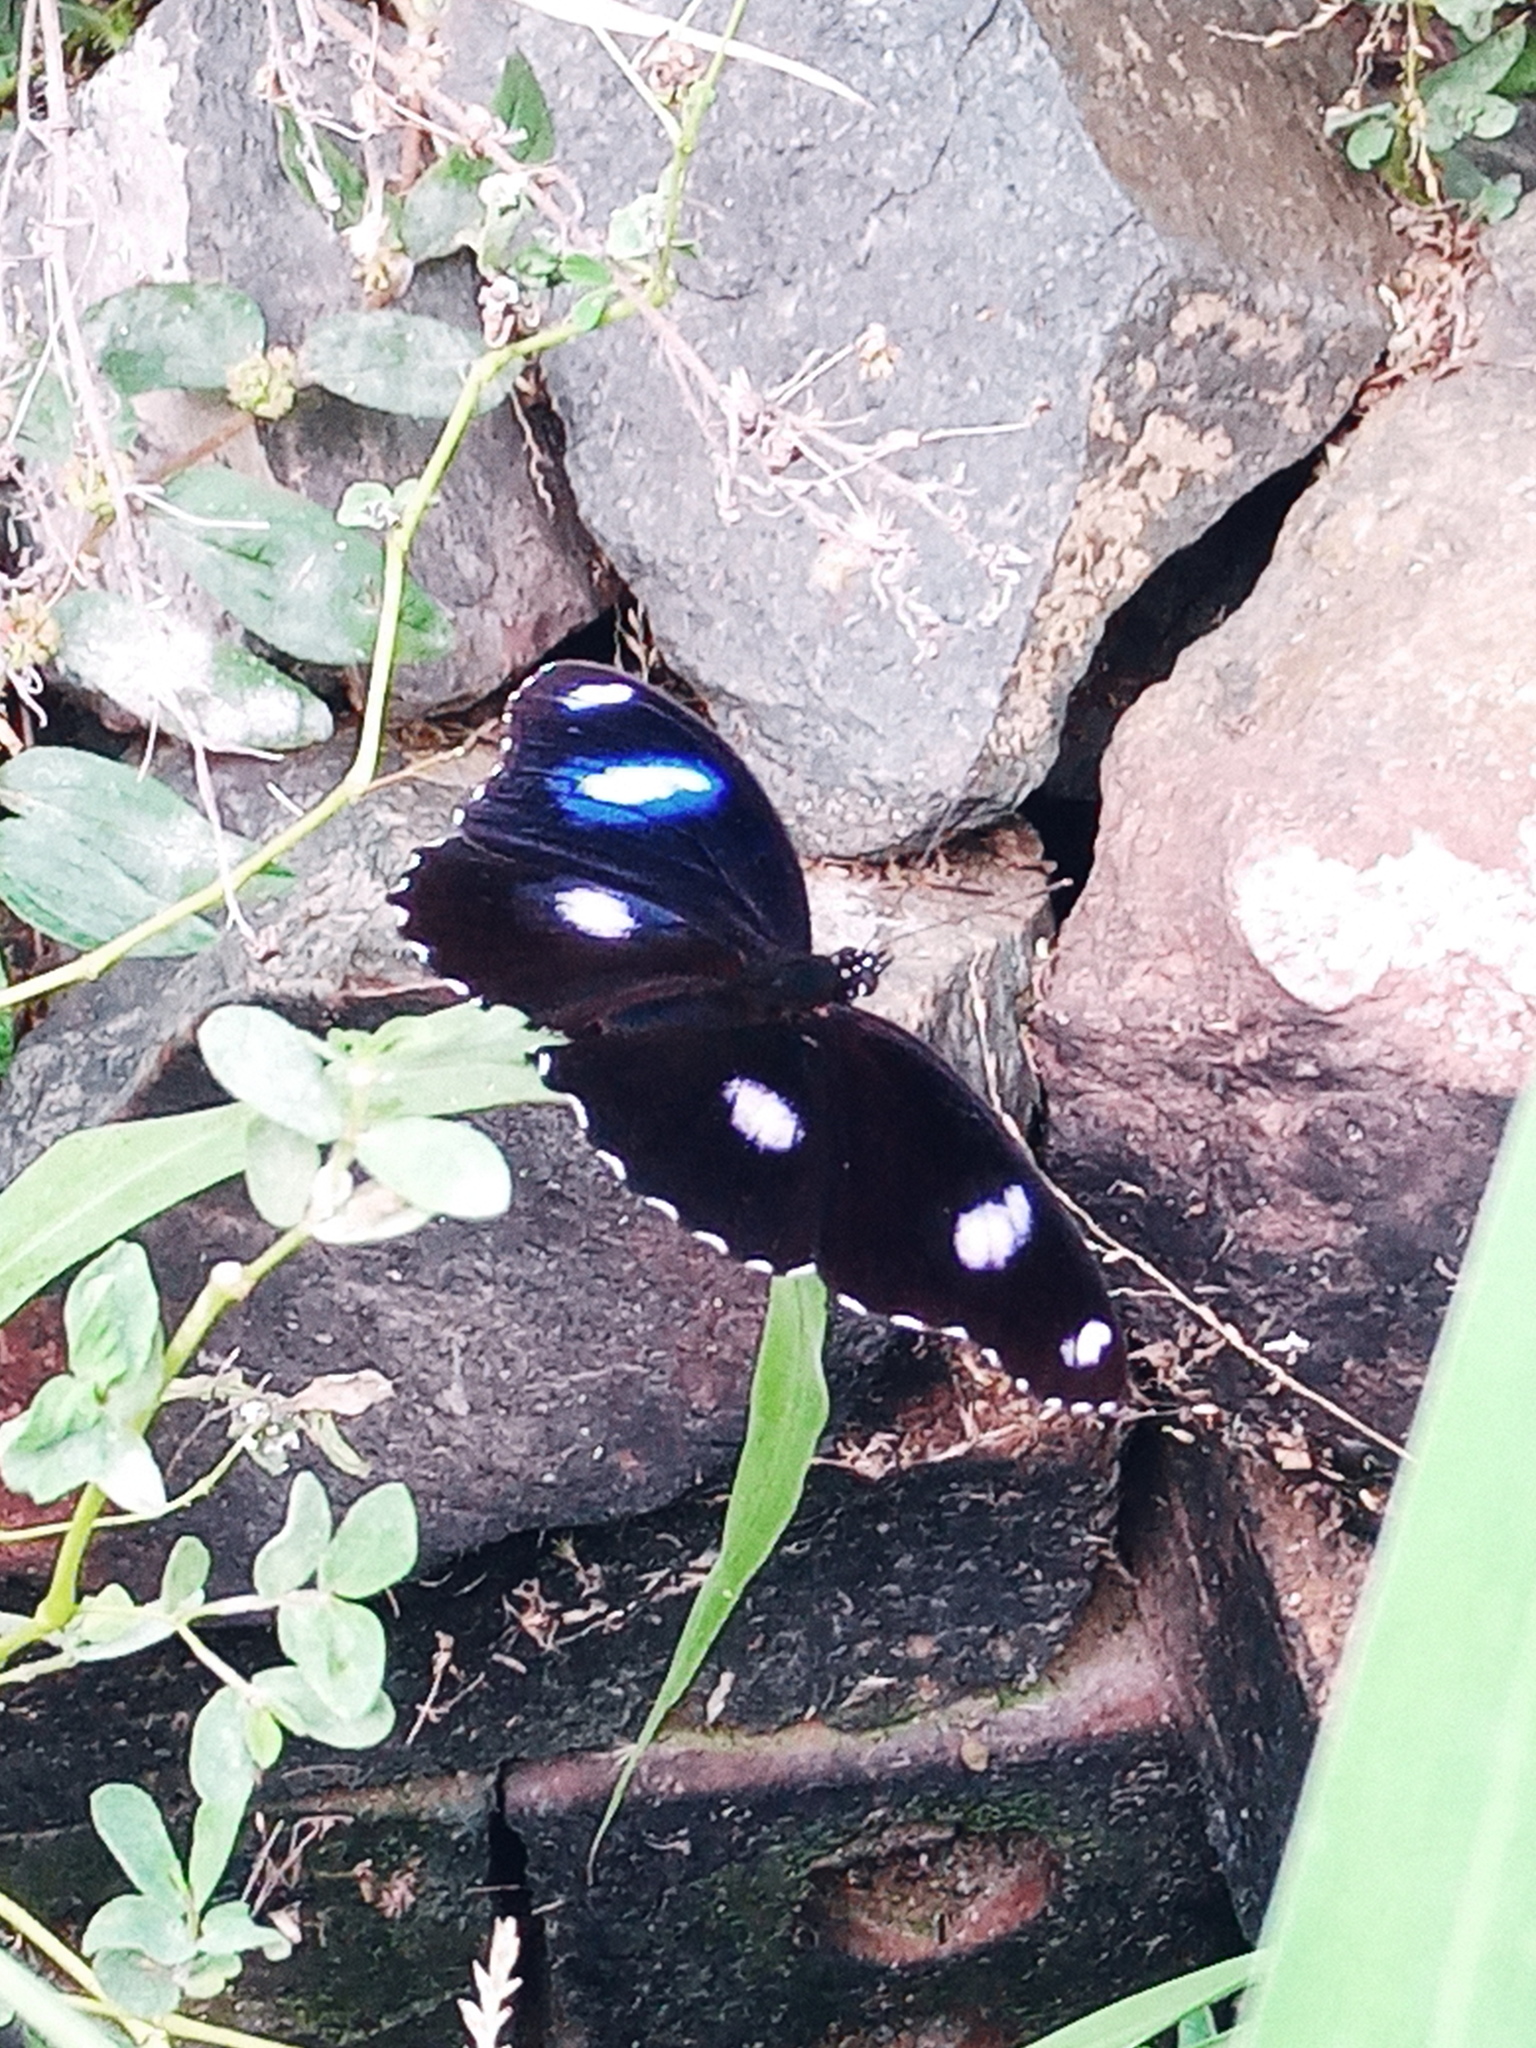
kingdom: Animalia
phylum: Arthropoda
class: Insecta
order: Lepidoptera
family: Nymphalidae
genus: Hypolimnas
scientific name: Hypolimnas bolina
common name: Great eggfly
